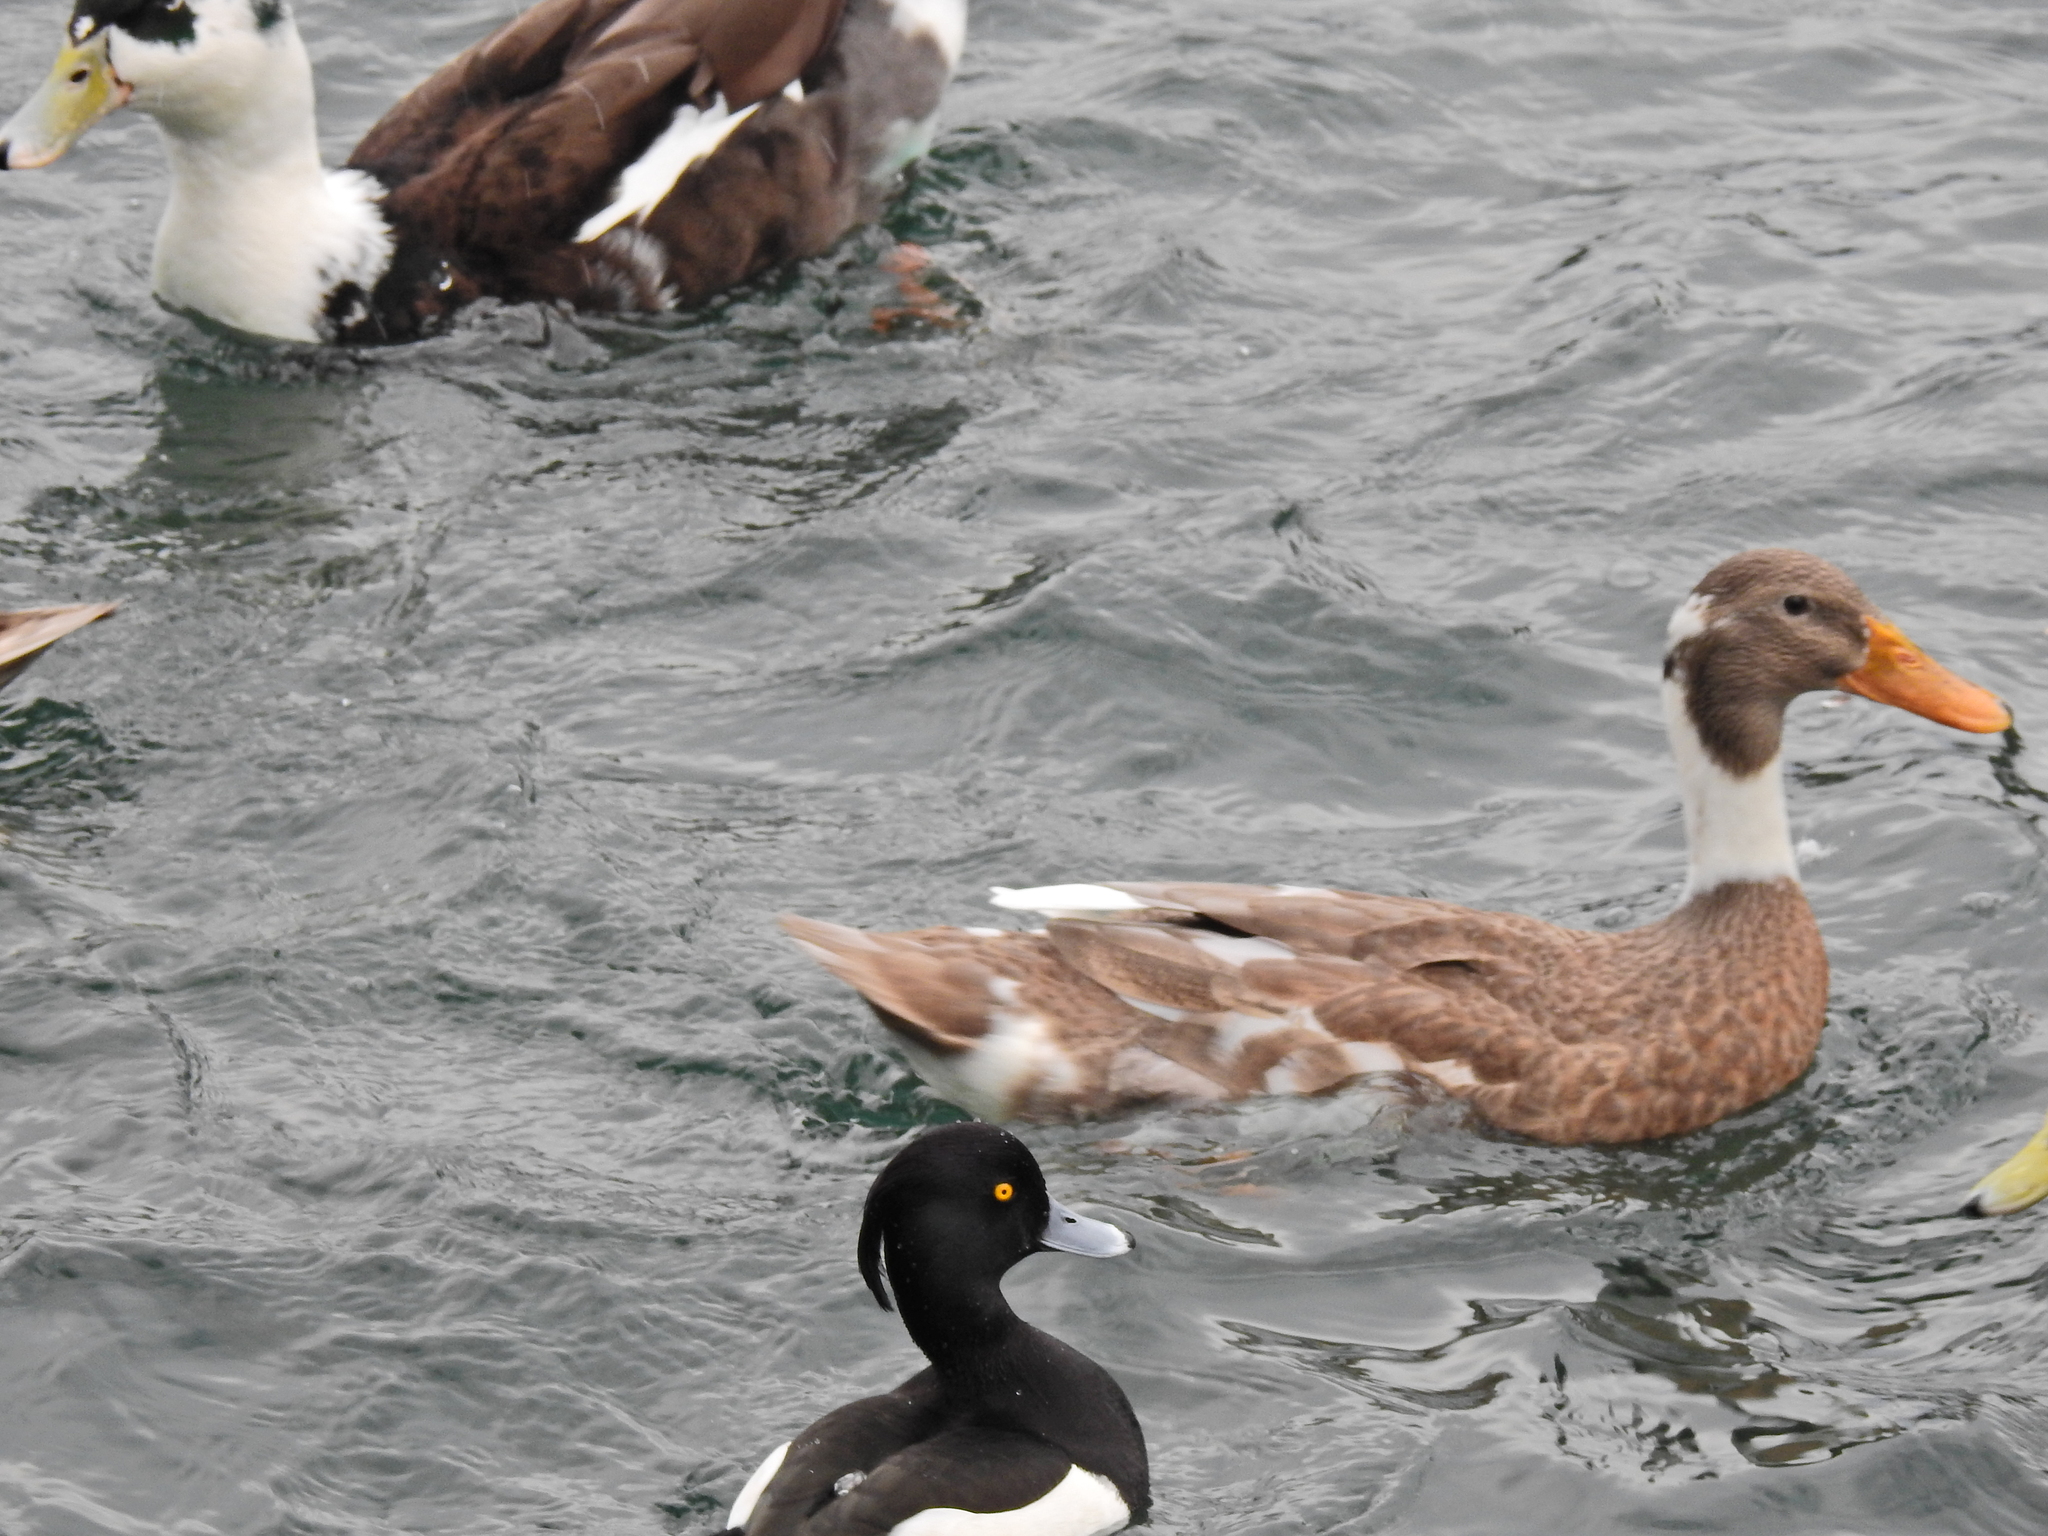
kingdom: Animalia
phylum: Chordata
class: Aves
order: Anseriformes
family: Anatidae
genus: Anas
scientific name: Anas platyrhynchos
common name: Mallard
